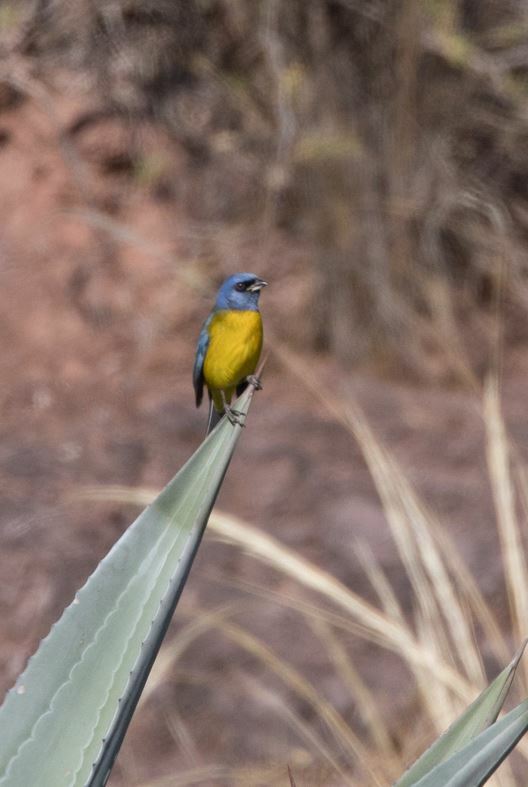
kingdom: Animalia
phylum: Chordata
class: Aves
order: Passeriformes
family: Thraupidae
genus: Rauenia
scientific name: Rauenia bonariensis
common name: Blue-and-yellow tanager
